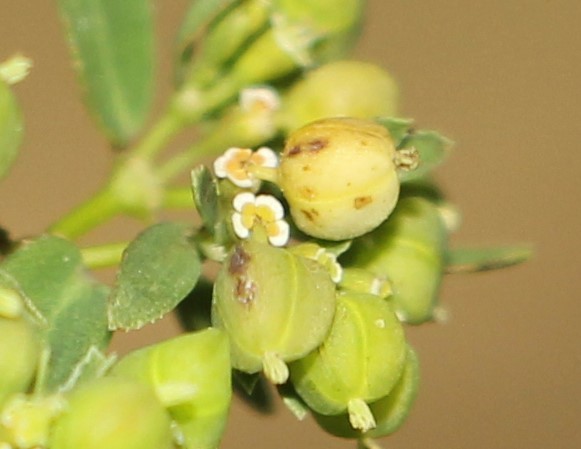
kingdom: Plantae
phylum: Tracheophyta
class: Magnoliopsida
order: Malpighiales
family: Euphorbiaceae
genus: Euphorbia
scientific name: Euphorbia hyssopifolia
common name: Hyssopleaf sandmat
